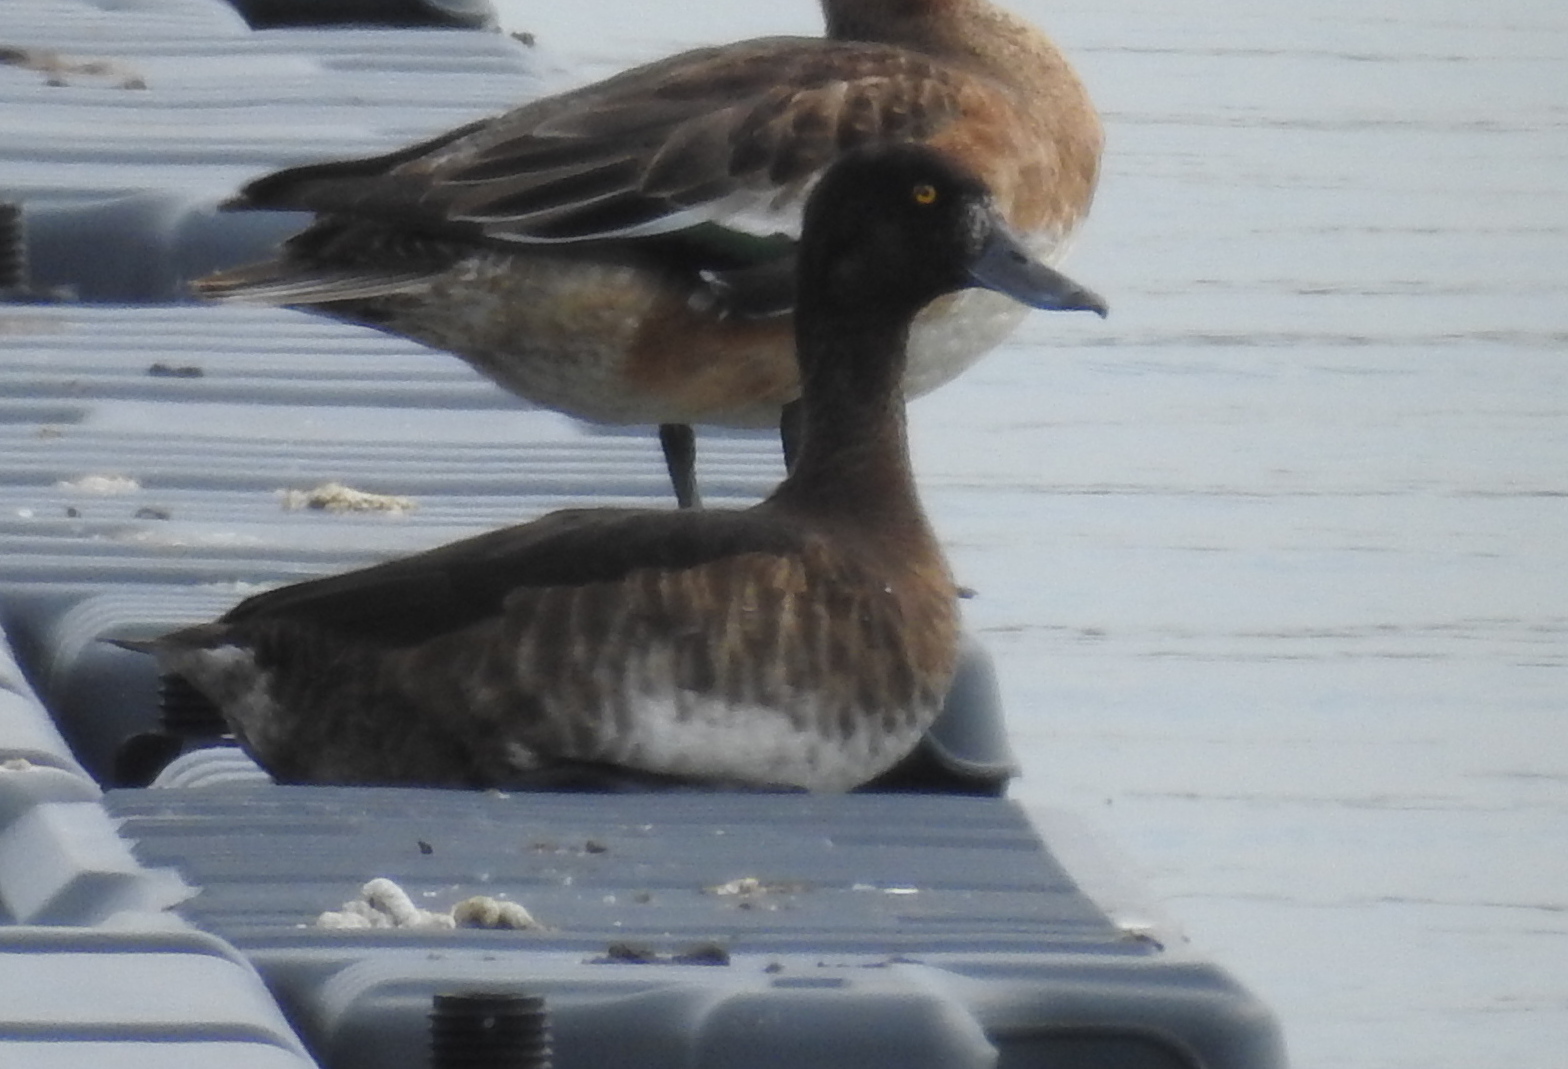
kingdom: Animalia
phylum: Chordata
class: Aves
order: Anseriformes
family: Anatidae
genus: Aythya
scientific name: Aythya fuligula
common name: Tufted duck
